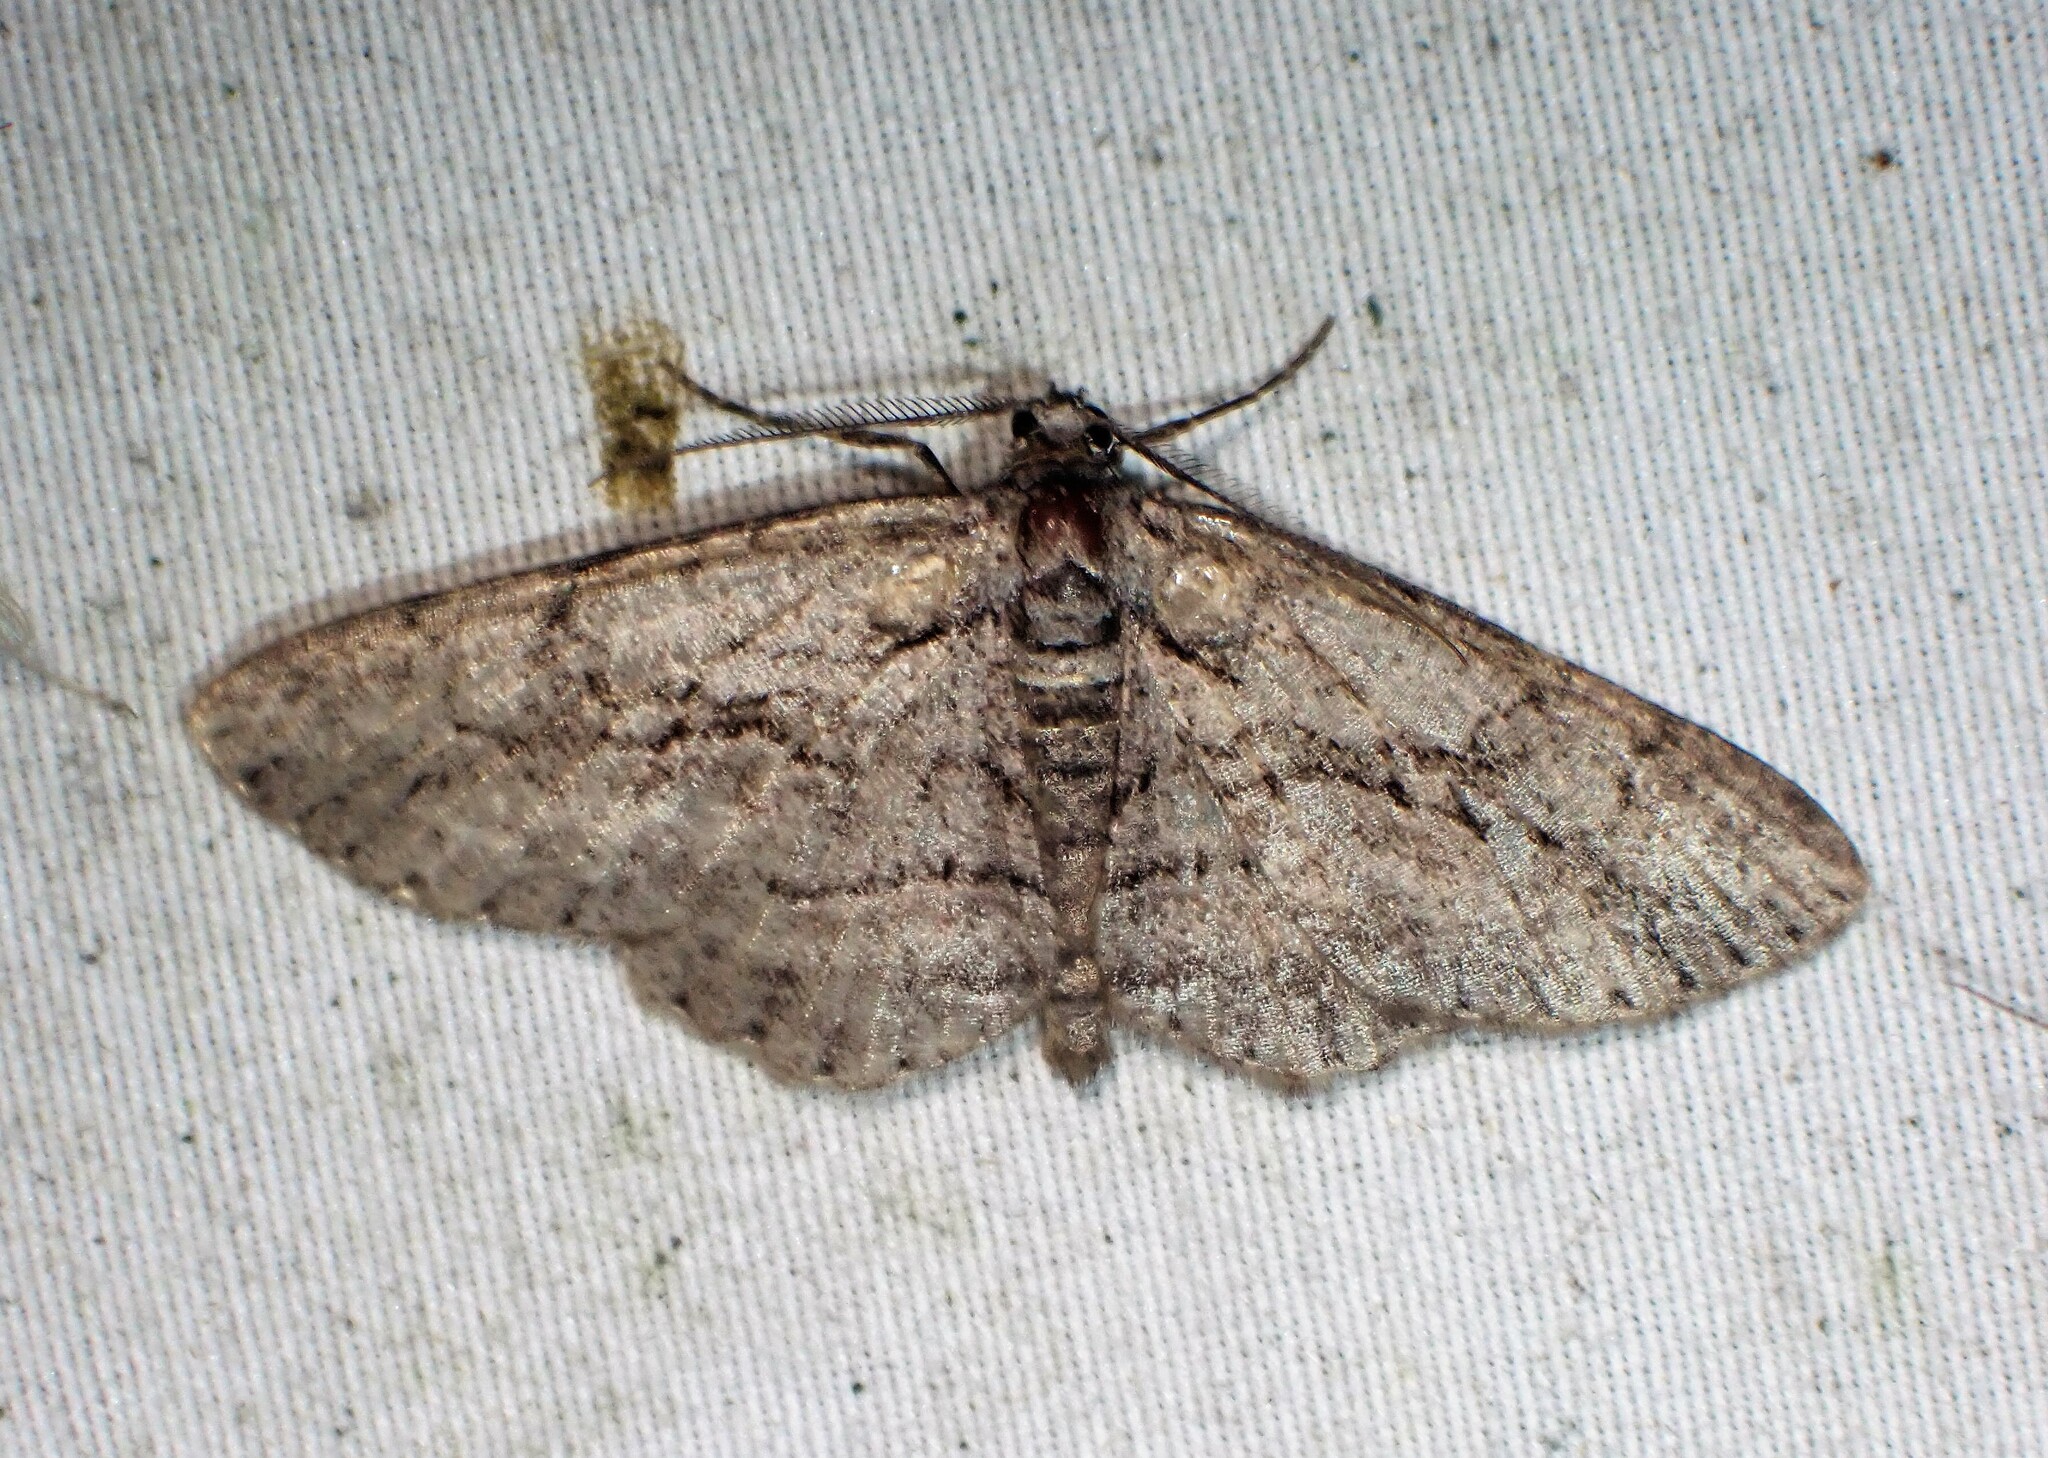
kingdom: Animalia
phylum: Arthropoda
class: Insecta
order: Lepidoptera
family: Geometridae
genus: Anavitrinella
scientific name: Anavitrinella pampinaria
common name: Common gray
